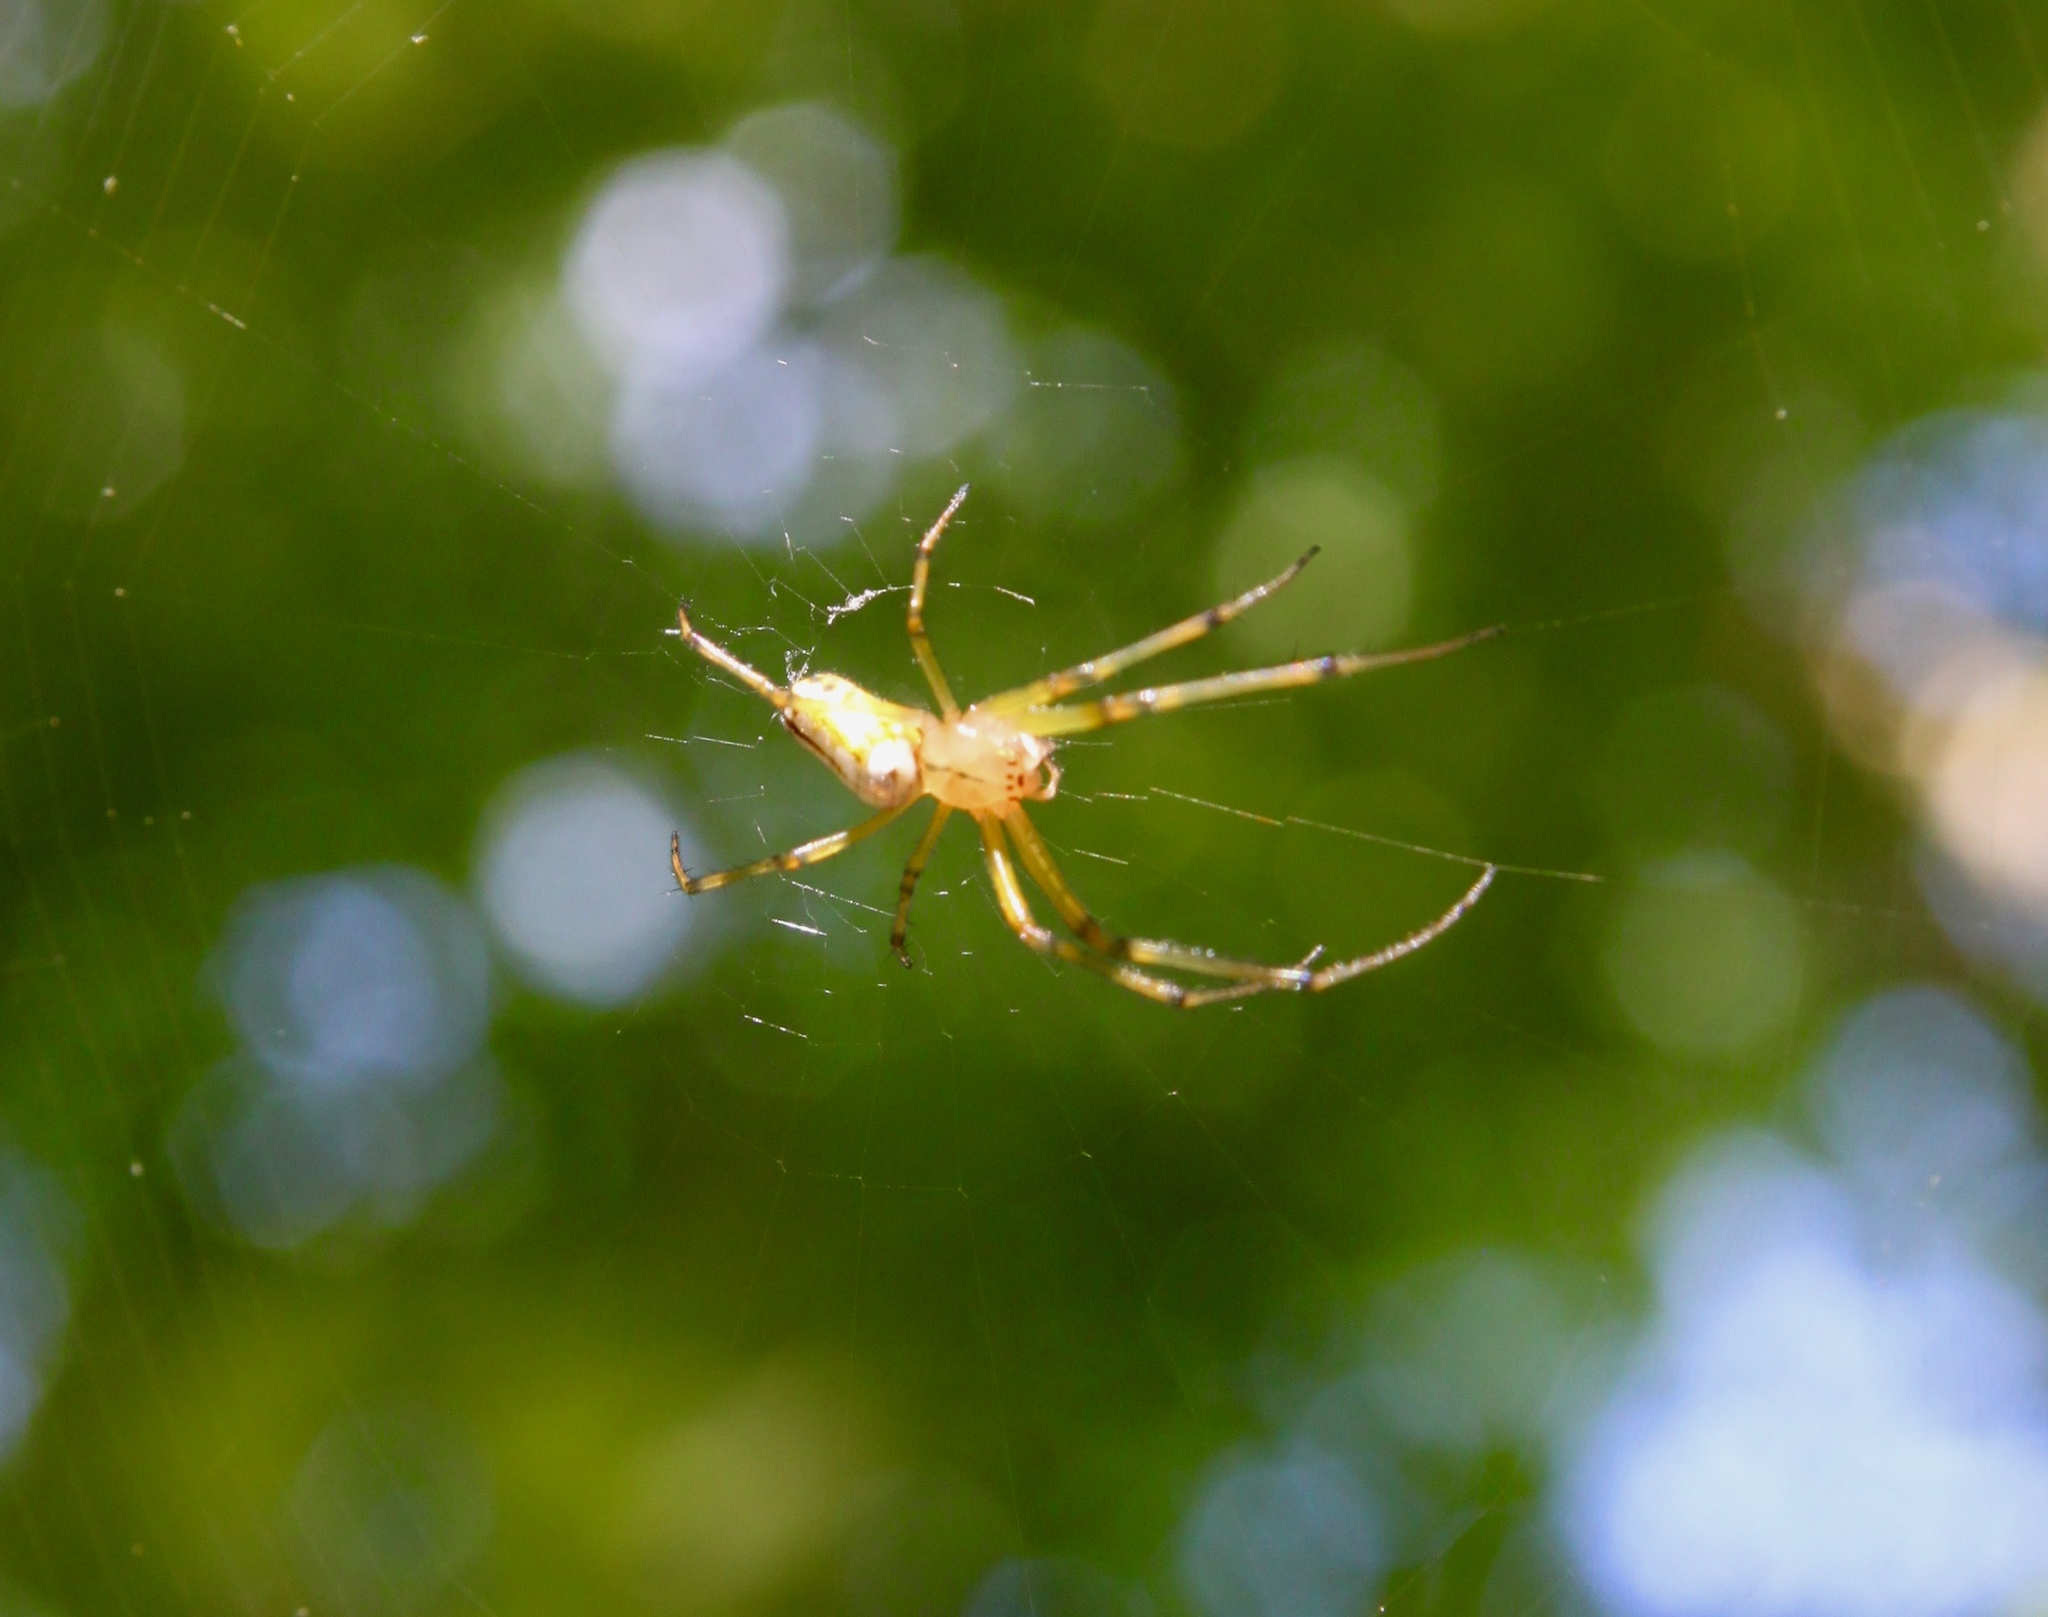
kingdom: Animalia
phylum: Arthropoda
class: Arachnida
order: Araneae
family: Tetragnathidae
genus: Leucauge
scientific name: Leucauge venusta
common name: Longjawed orb weavers
